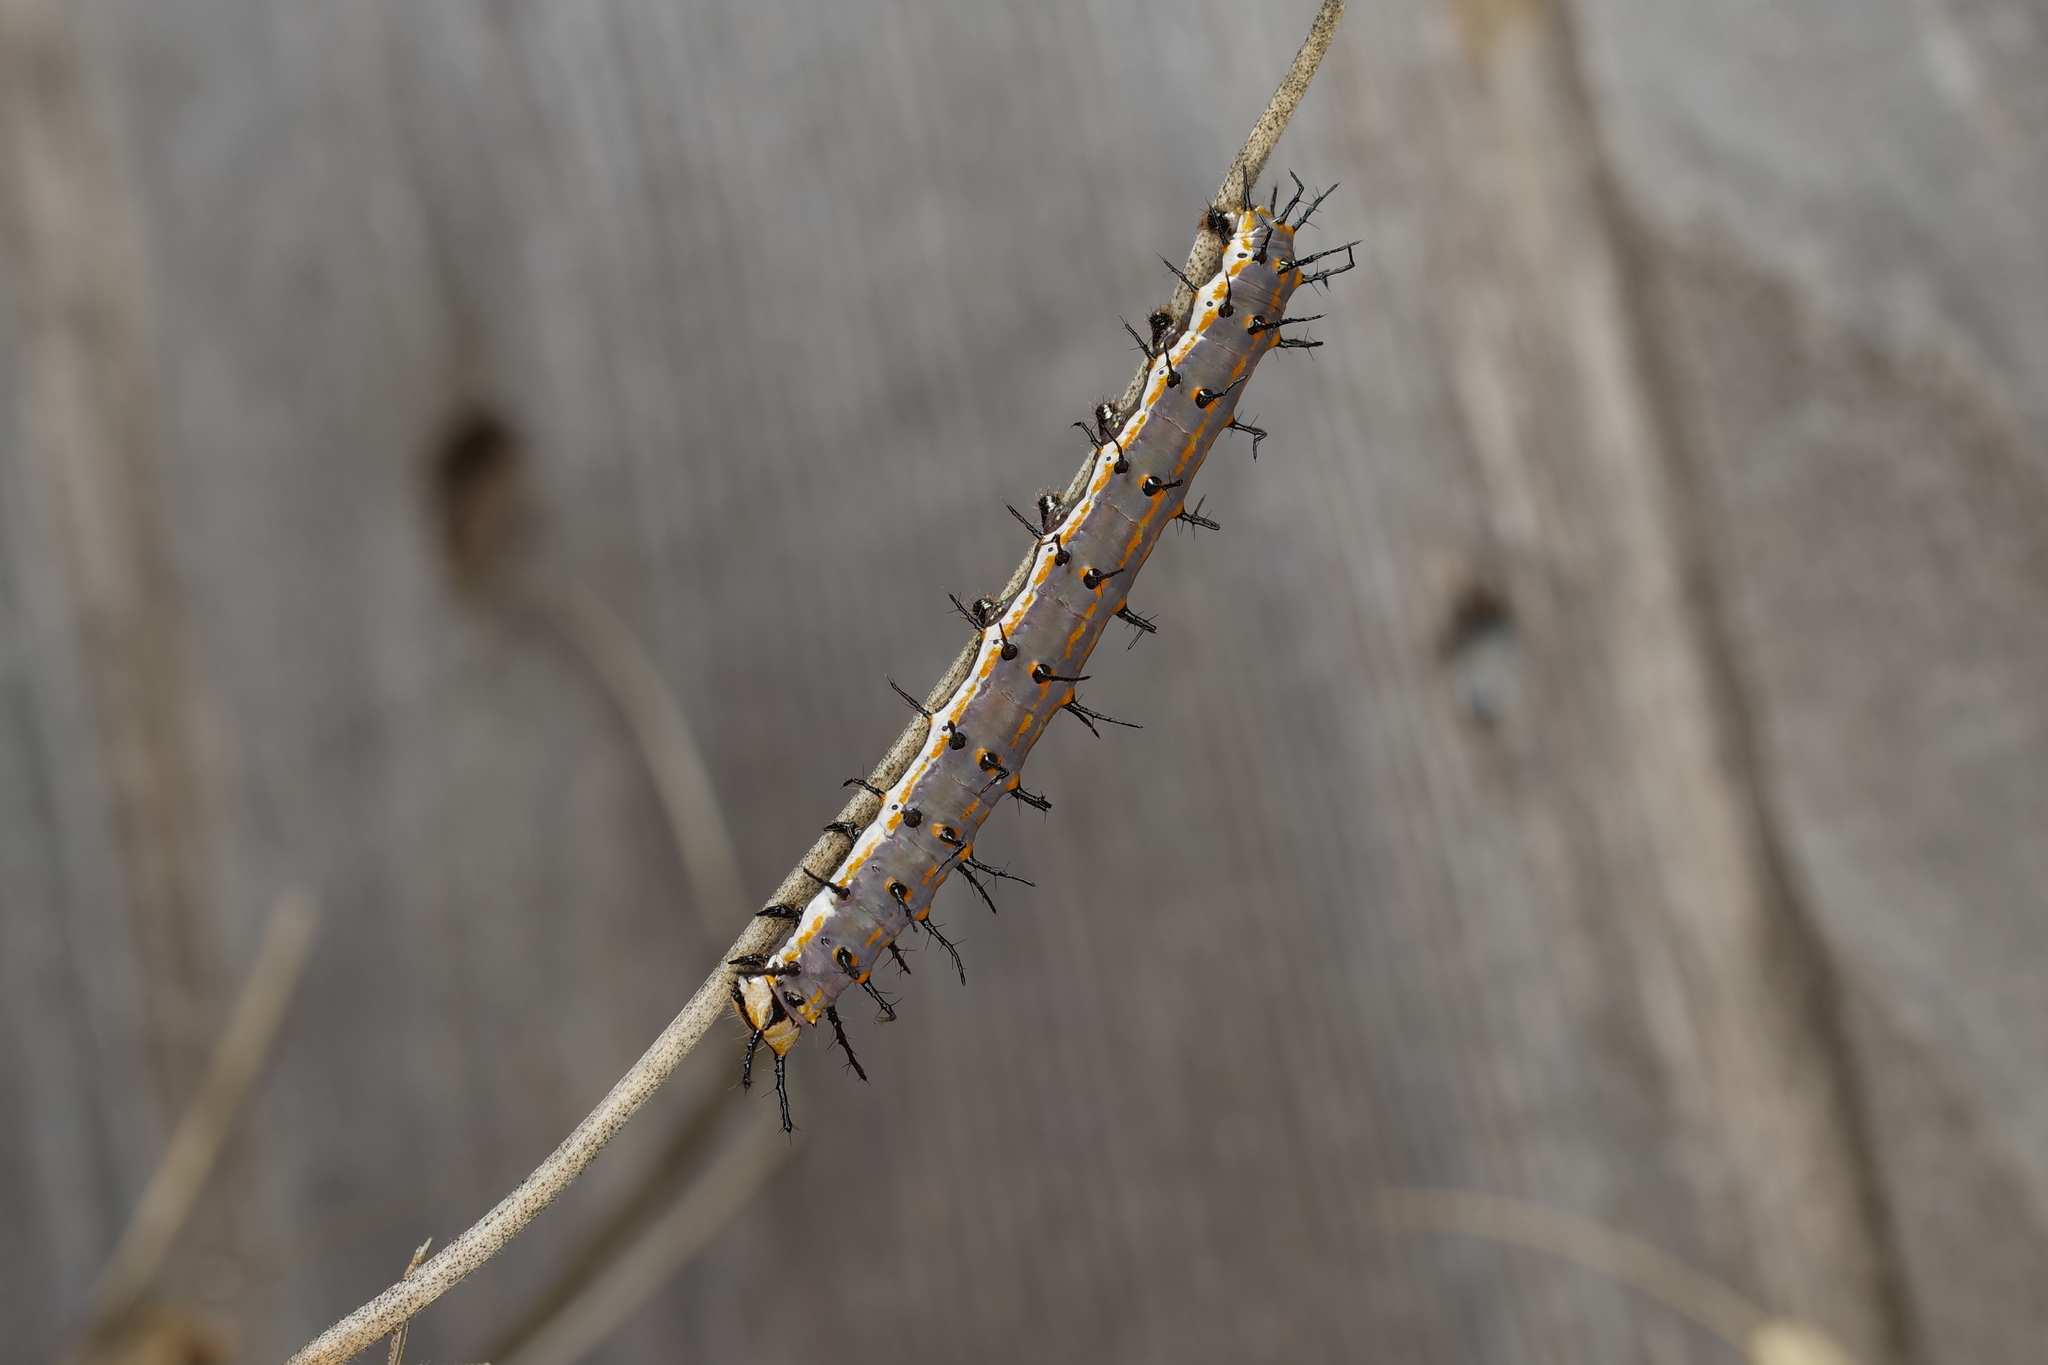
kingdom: Animalia
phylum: Arthropoda
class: Insecta
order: Lepidoptera
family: Nymphalidae
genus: Dione
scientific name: Dione vanillae
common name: Gulf fritillary
